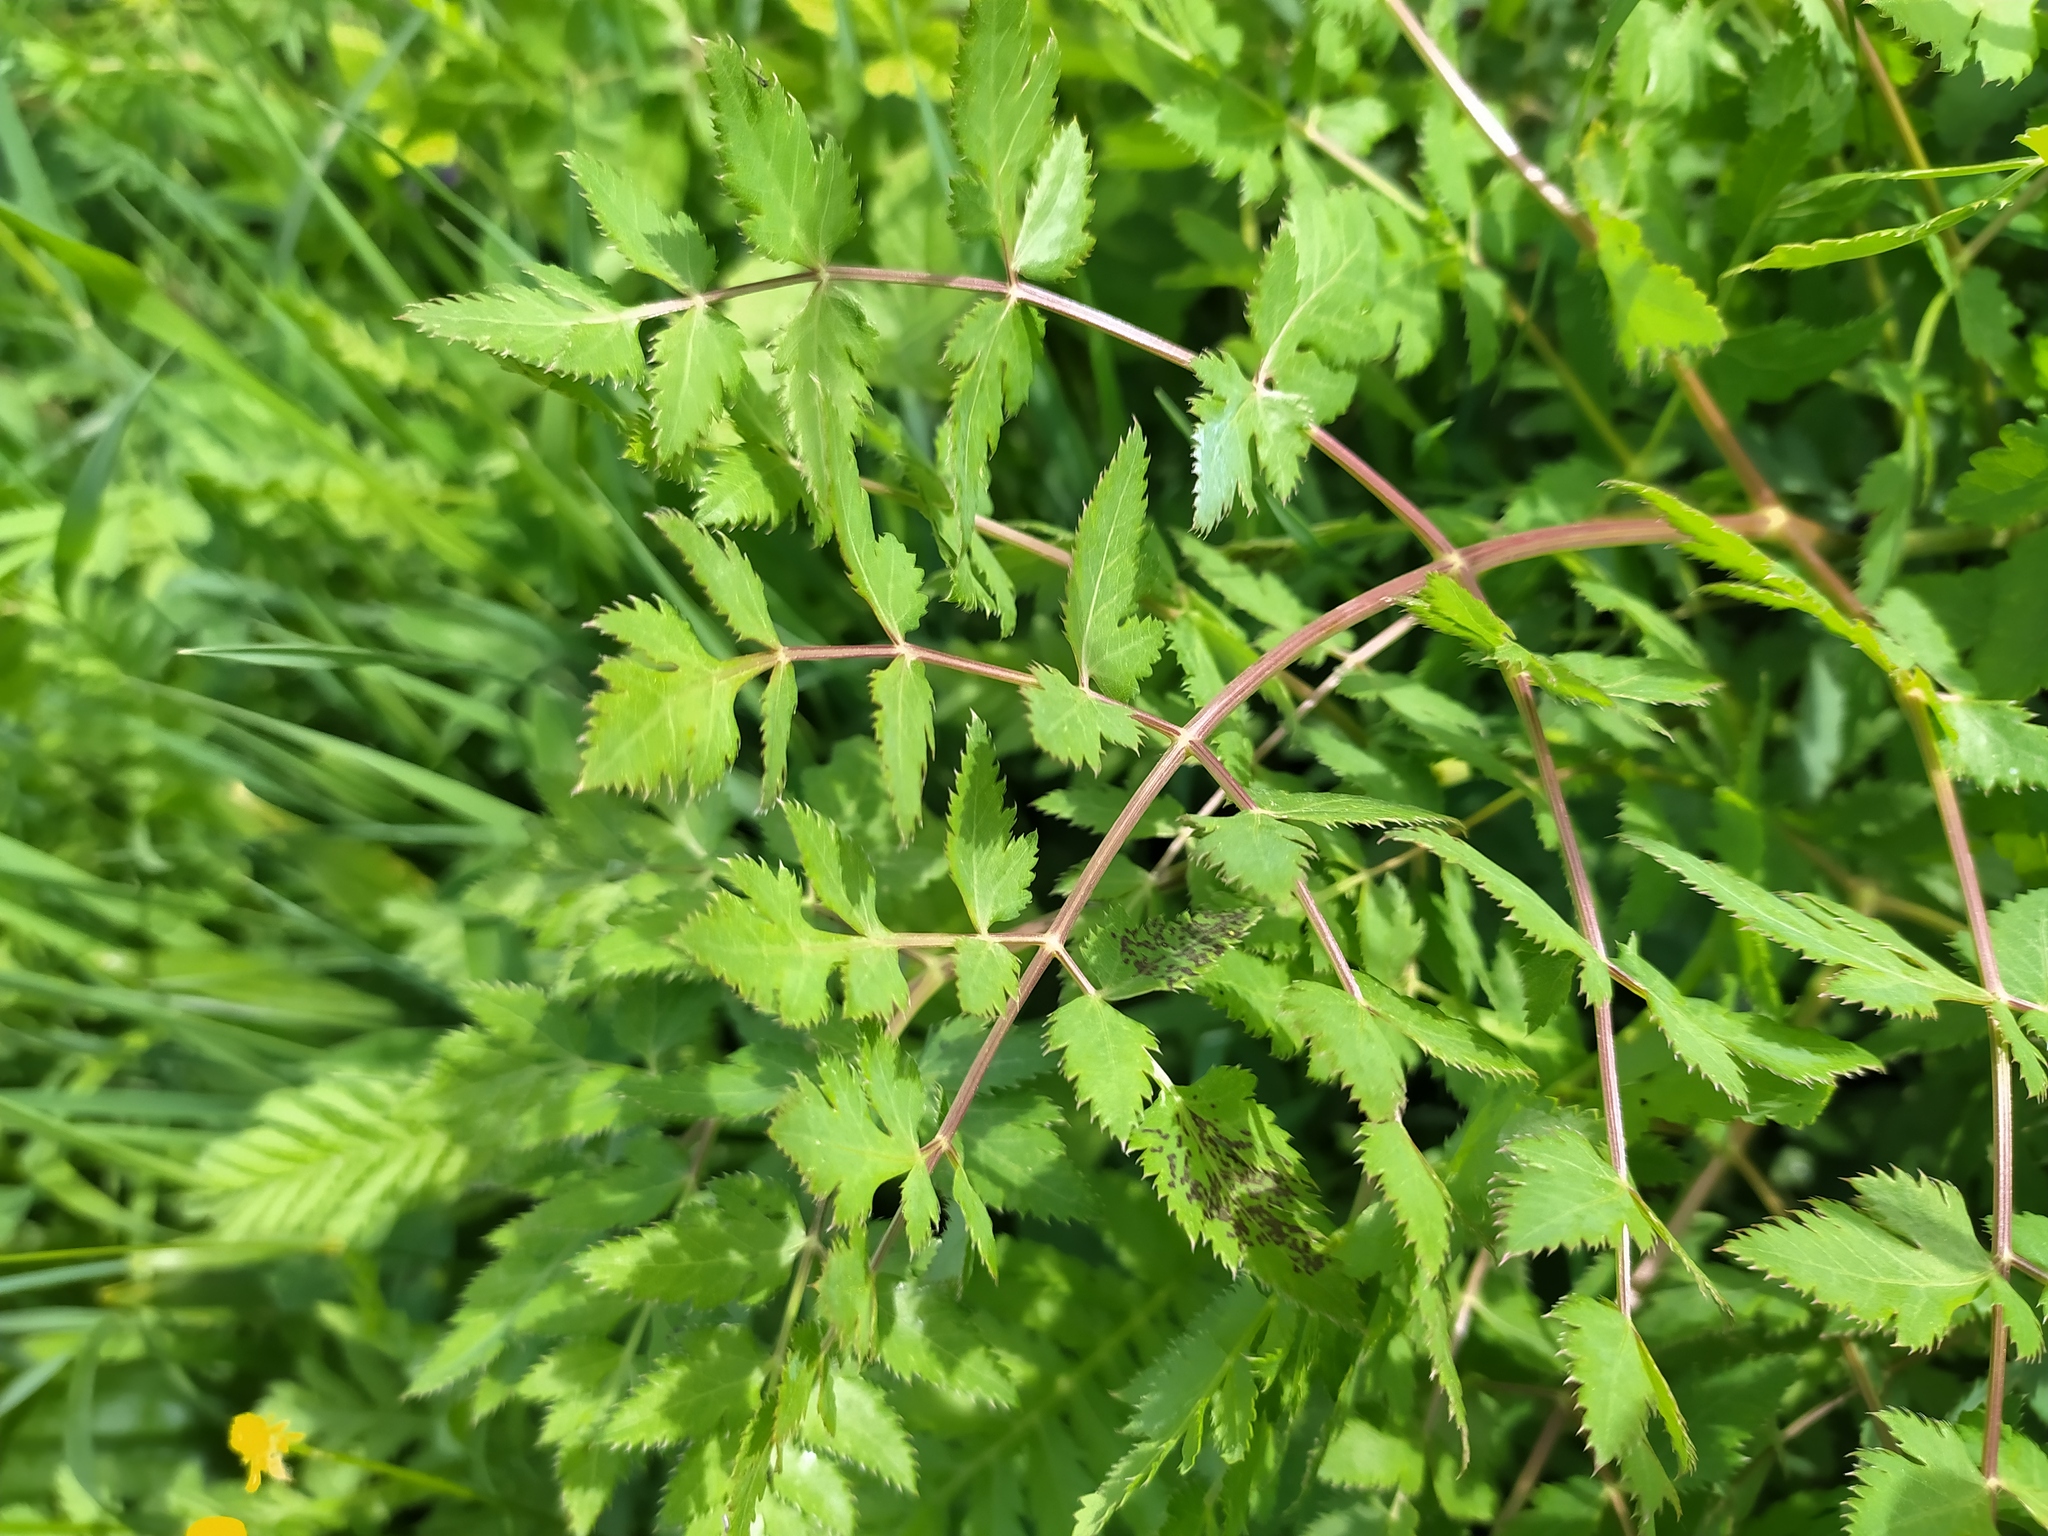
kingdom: Plantae
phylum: Tracheophyta
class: Magnoliopsida
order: Apiales
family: Apiaceae
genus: Cervaria
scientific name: Cervaria rivini
